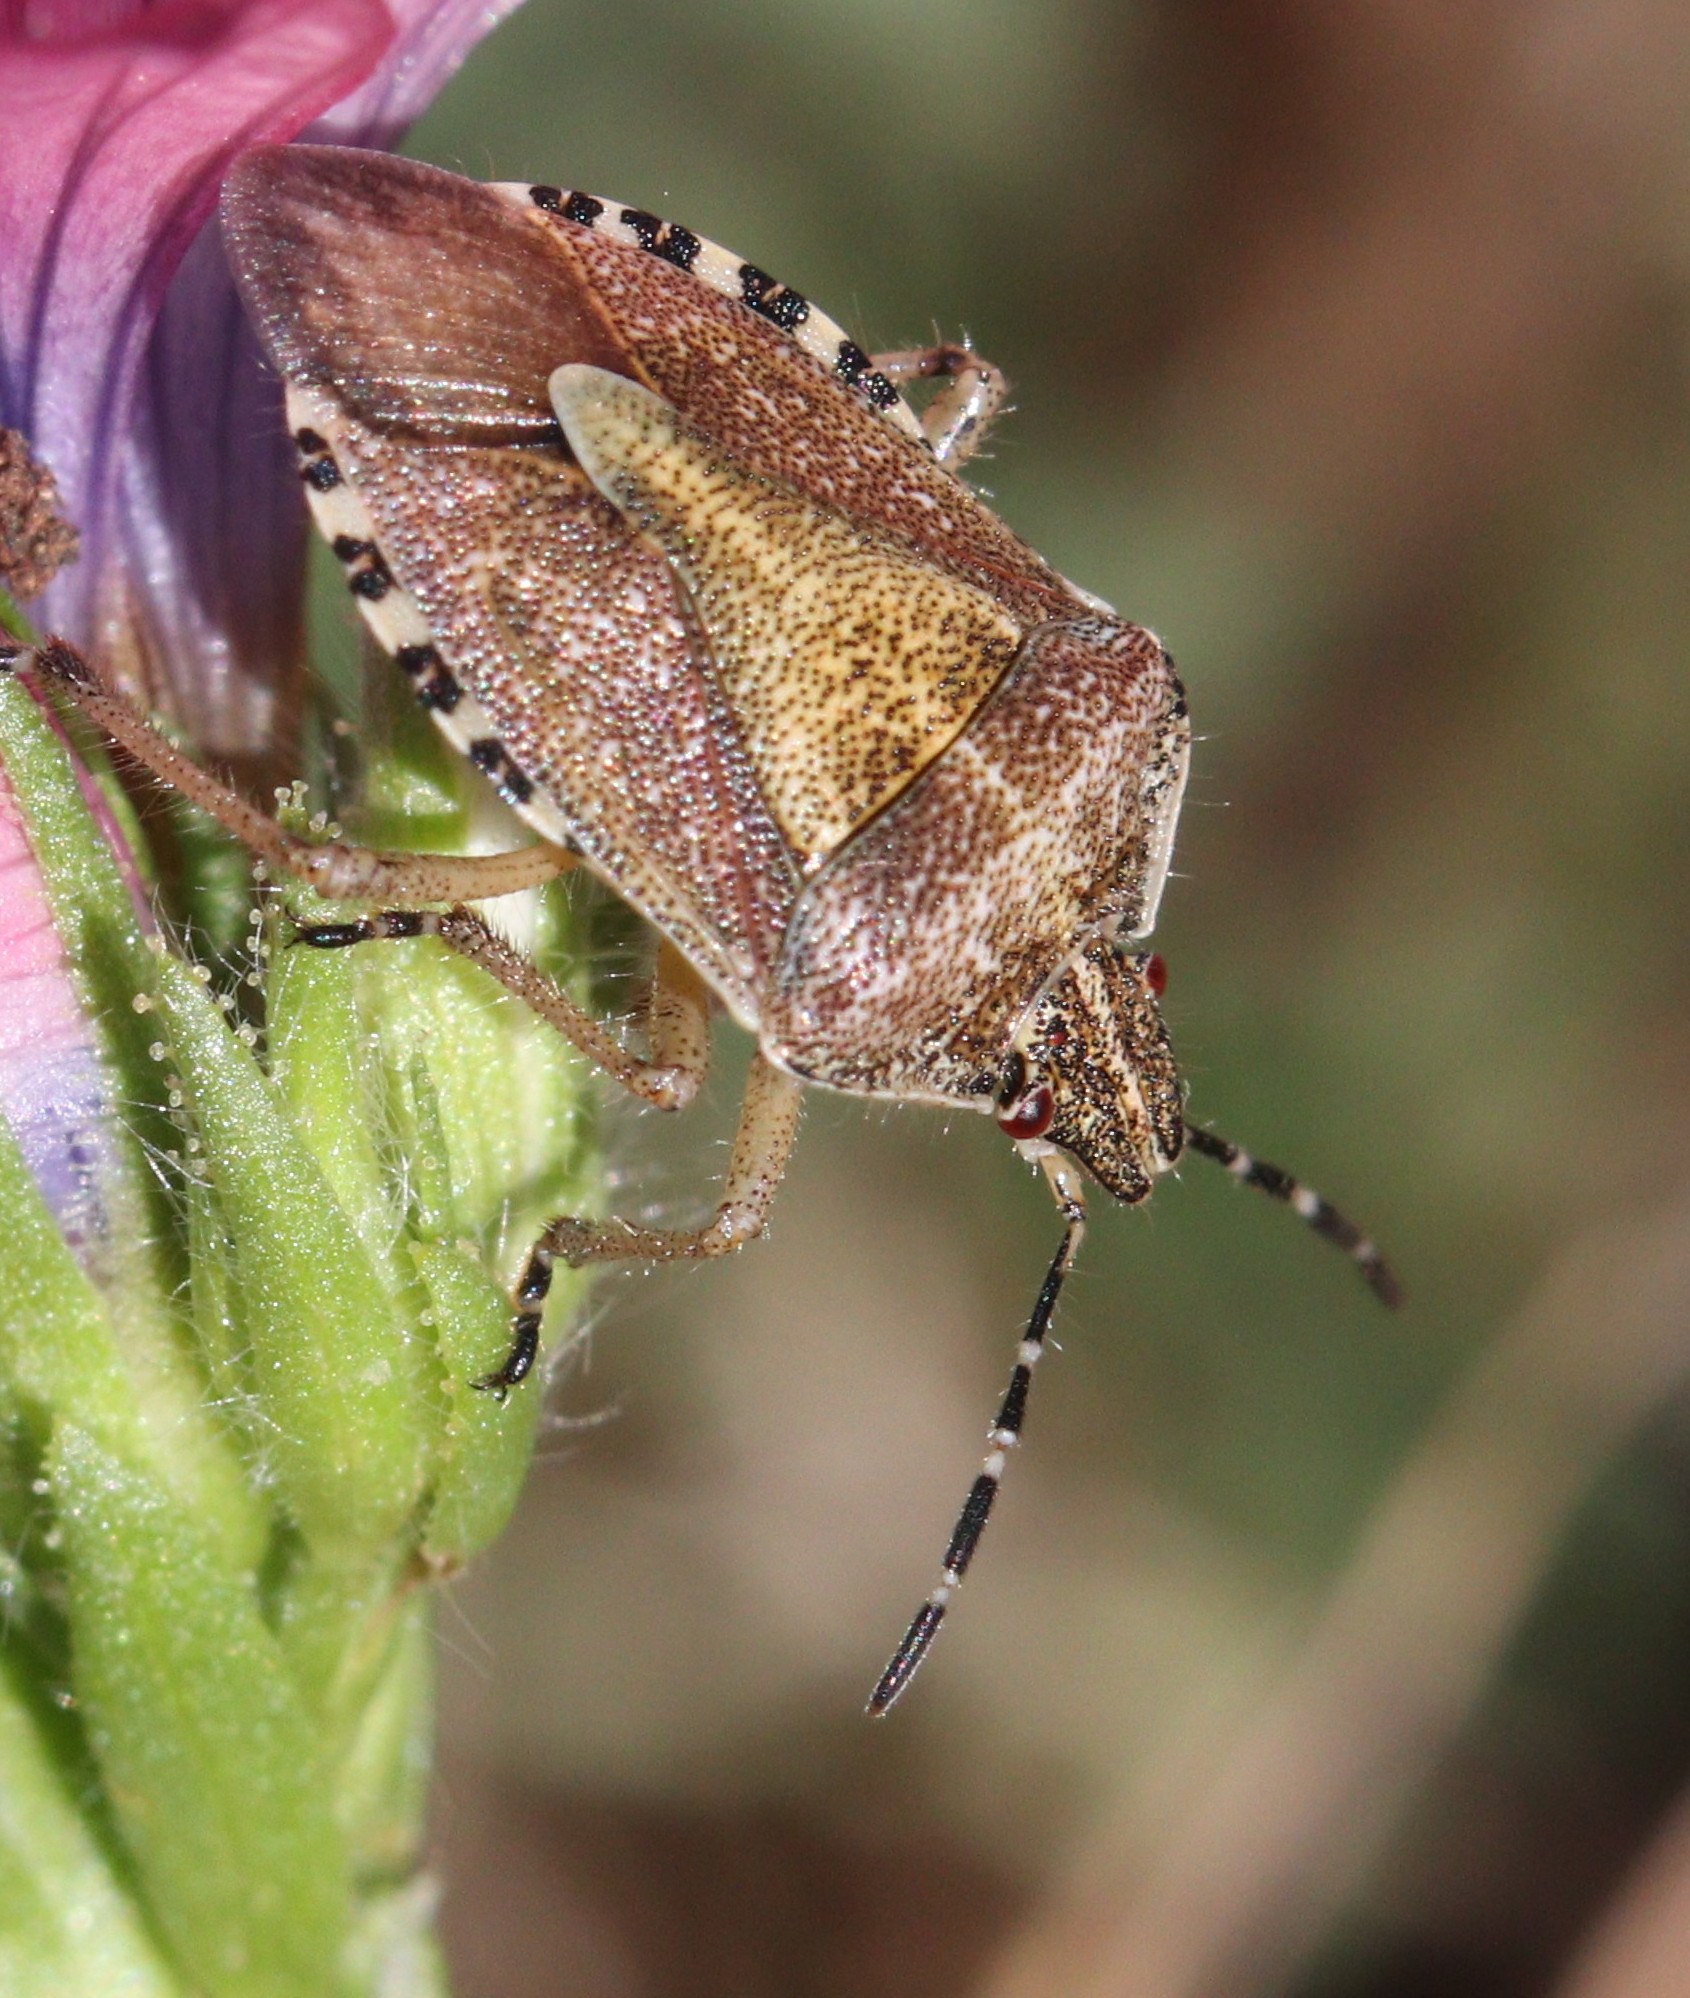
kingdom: Animalia
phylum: Arthropoda
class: Insecta
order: Hemiptera
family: Pentatomidae
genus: Dolycoris
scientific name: Dolycoris baccarum
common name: Sloe bug
